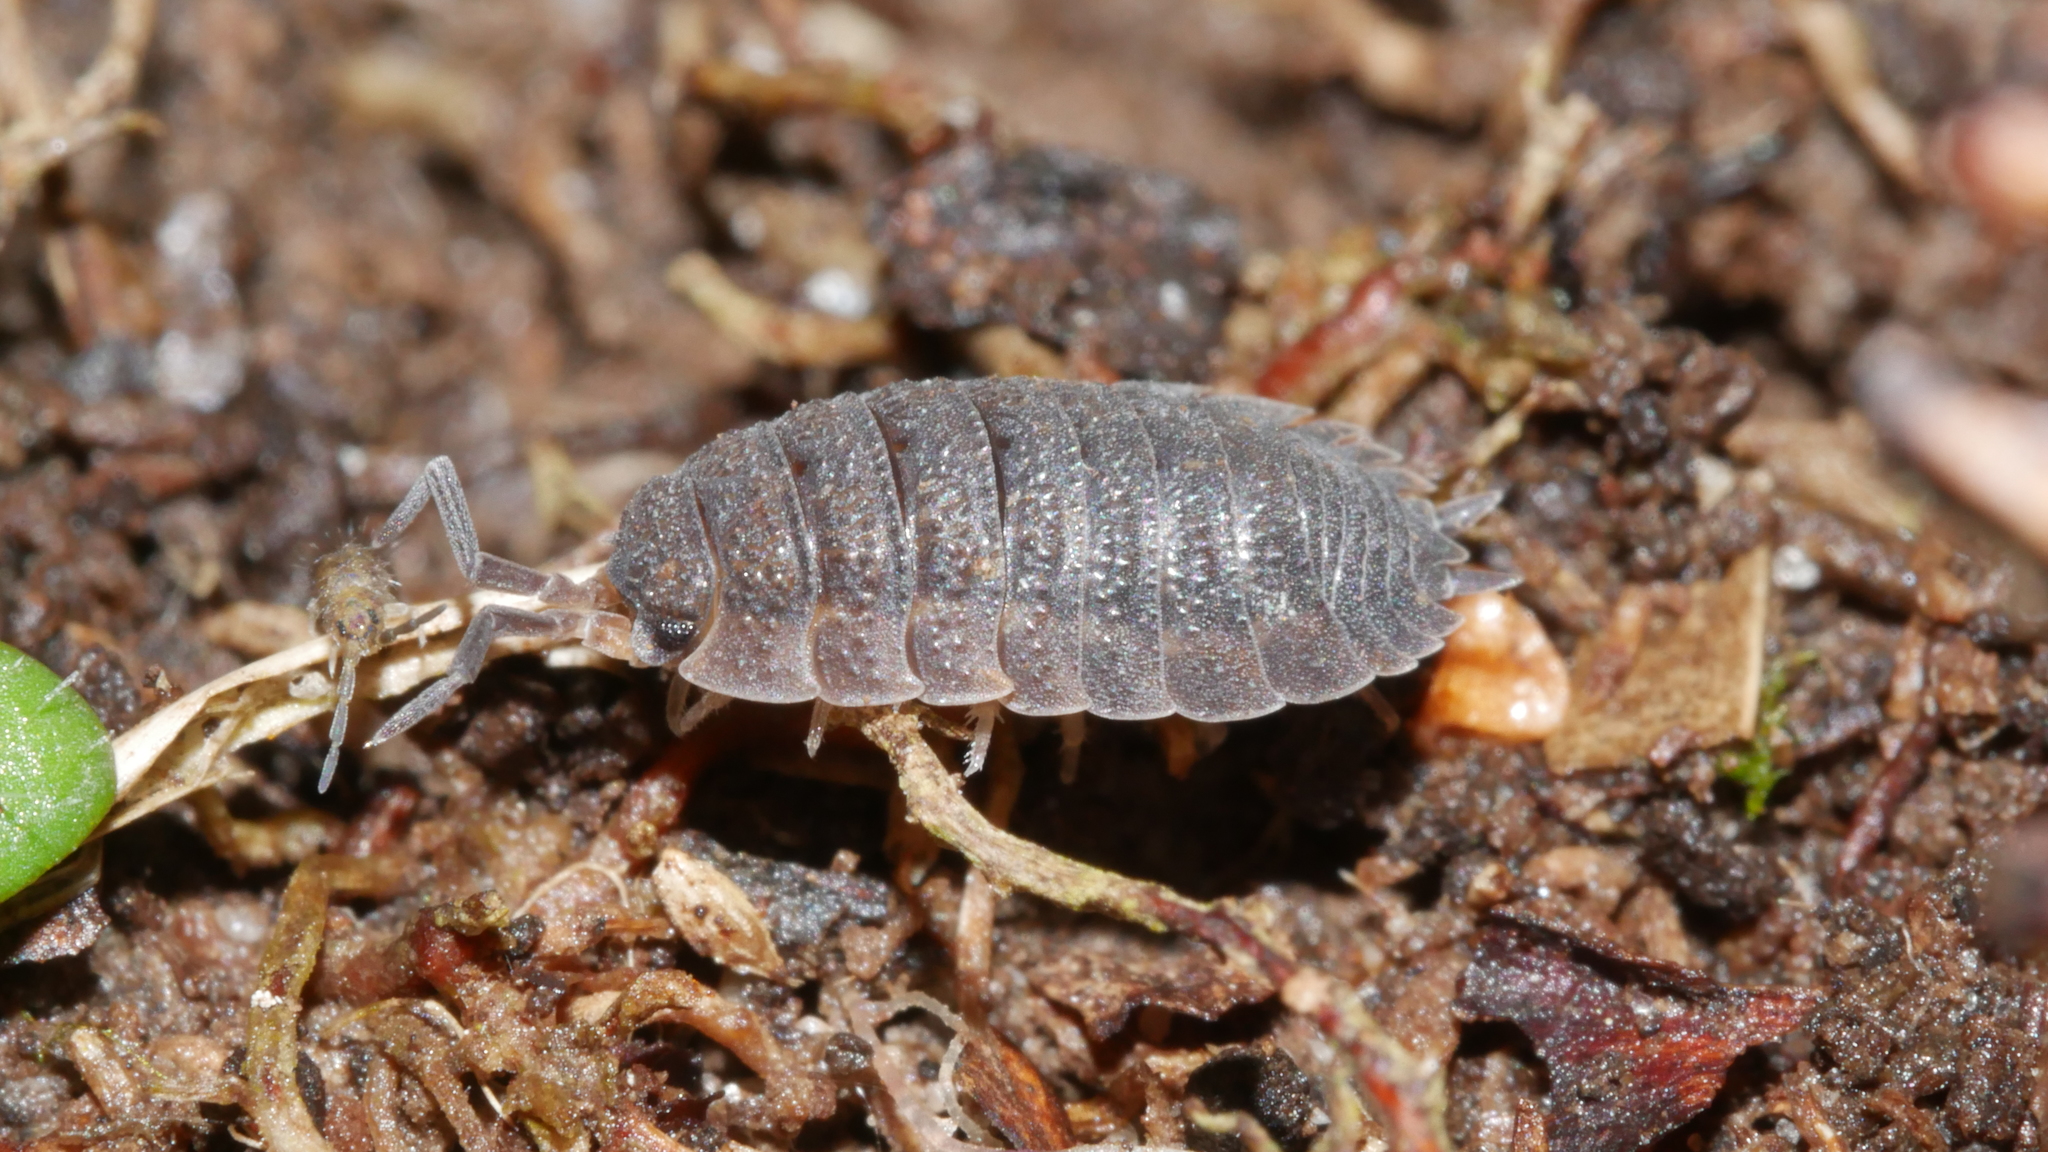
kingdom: Animalia
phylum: Arthropoda
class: Malacostraca
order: Isopoda
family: Porcellionidae
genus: Porcellio
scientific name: Porcellio scaber
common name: Common rough woodlouse
